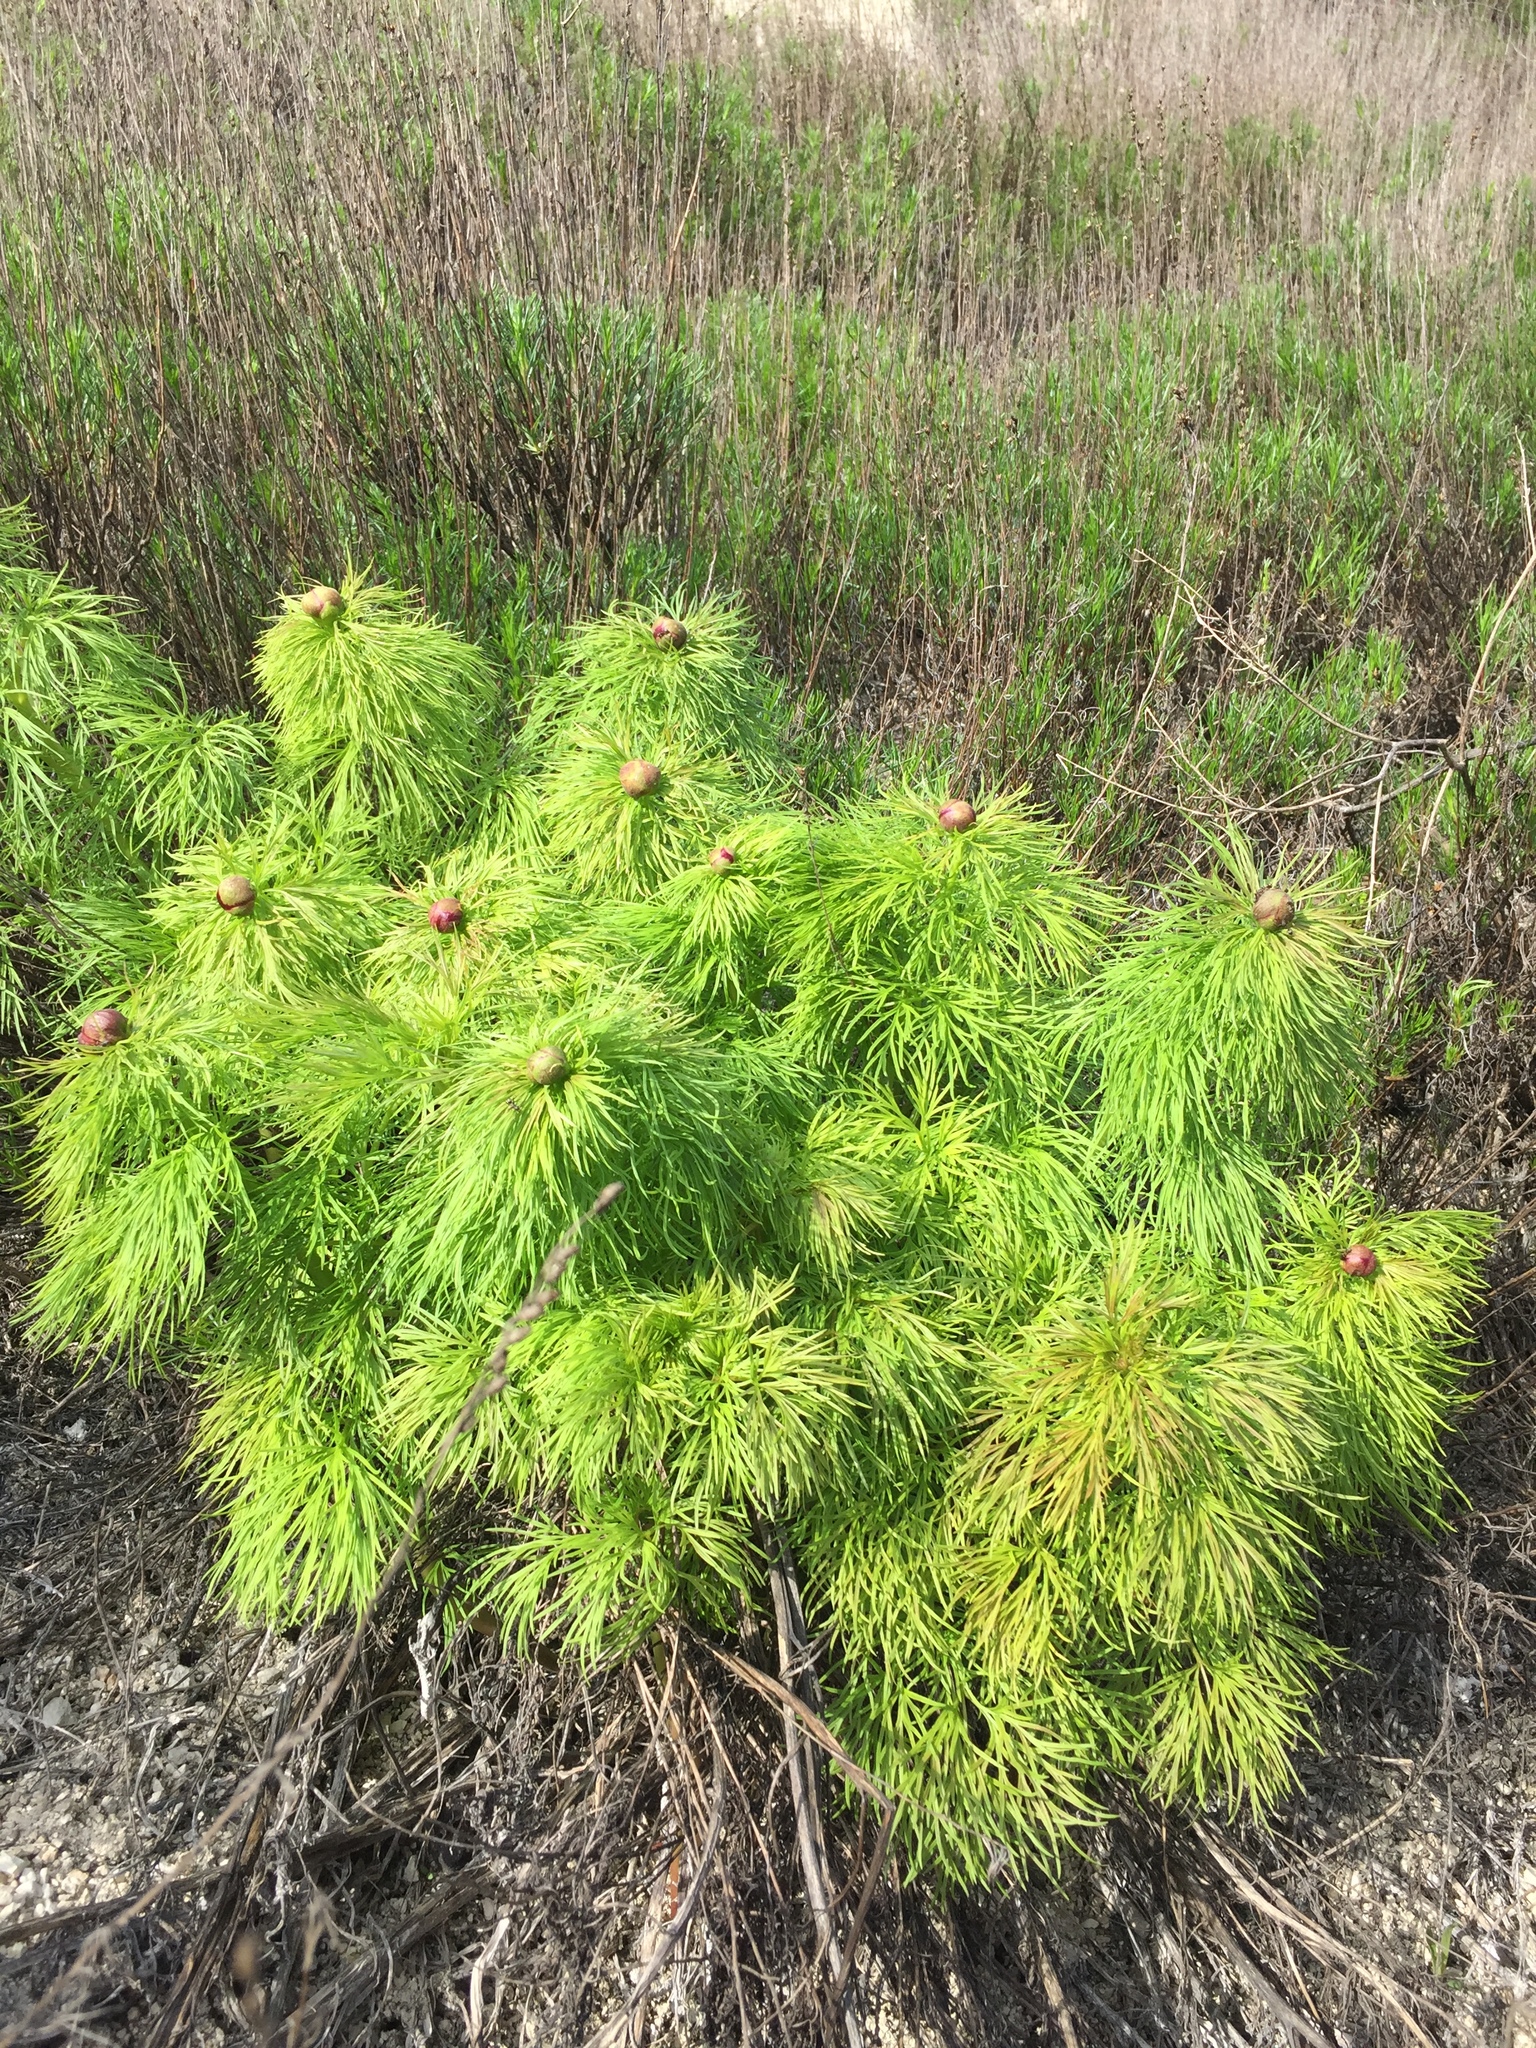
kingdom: Plantae
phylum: Tracheophyta
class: Magnoliopsida
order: Saxifragales
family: Paeoniaceae
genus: Paeonia
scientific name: Paeonia tenuifolia
